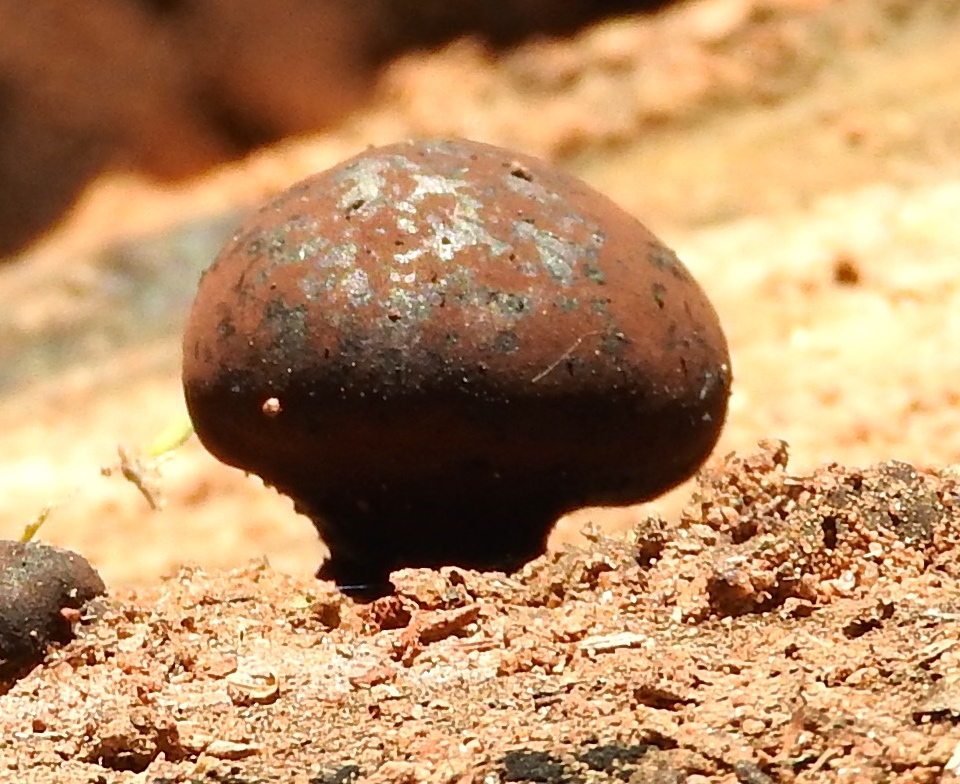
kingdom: Fungi
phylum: Ascomycota
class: Sordariomycetes
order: Xylariales
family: Hypoxylaceae
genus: Daldinia
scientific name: Daldinia
